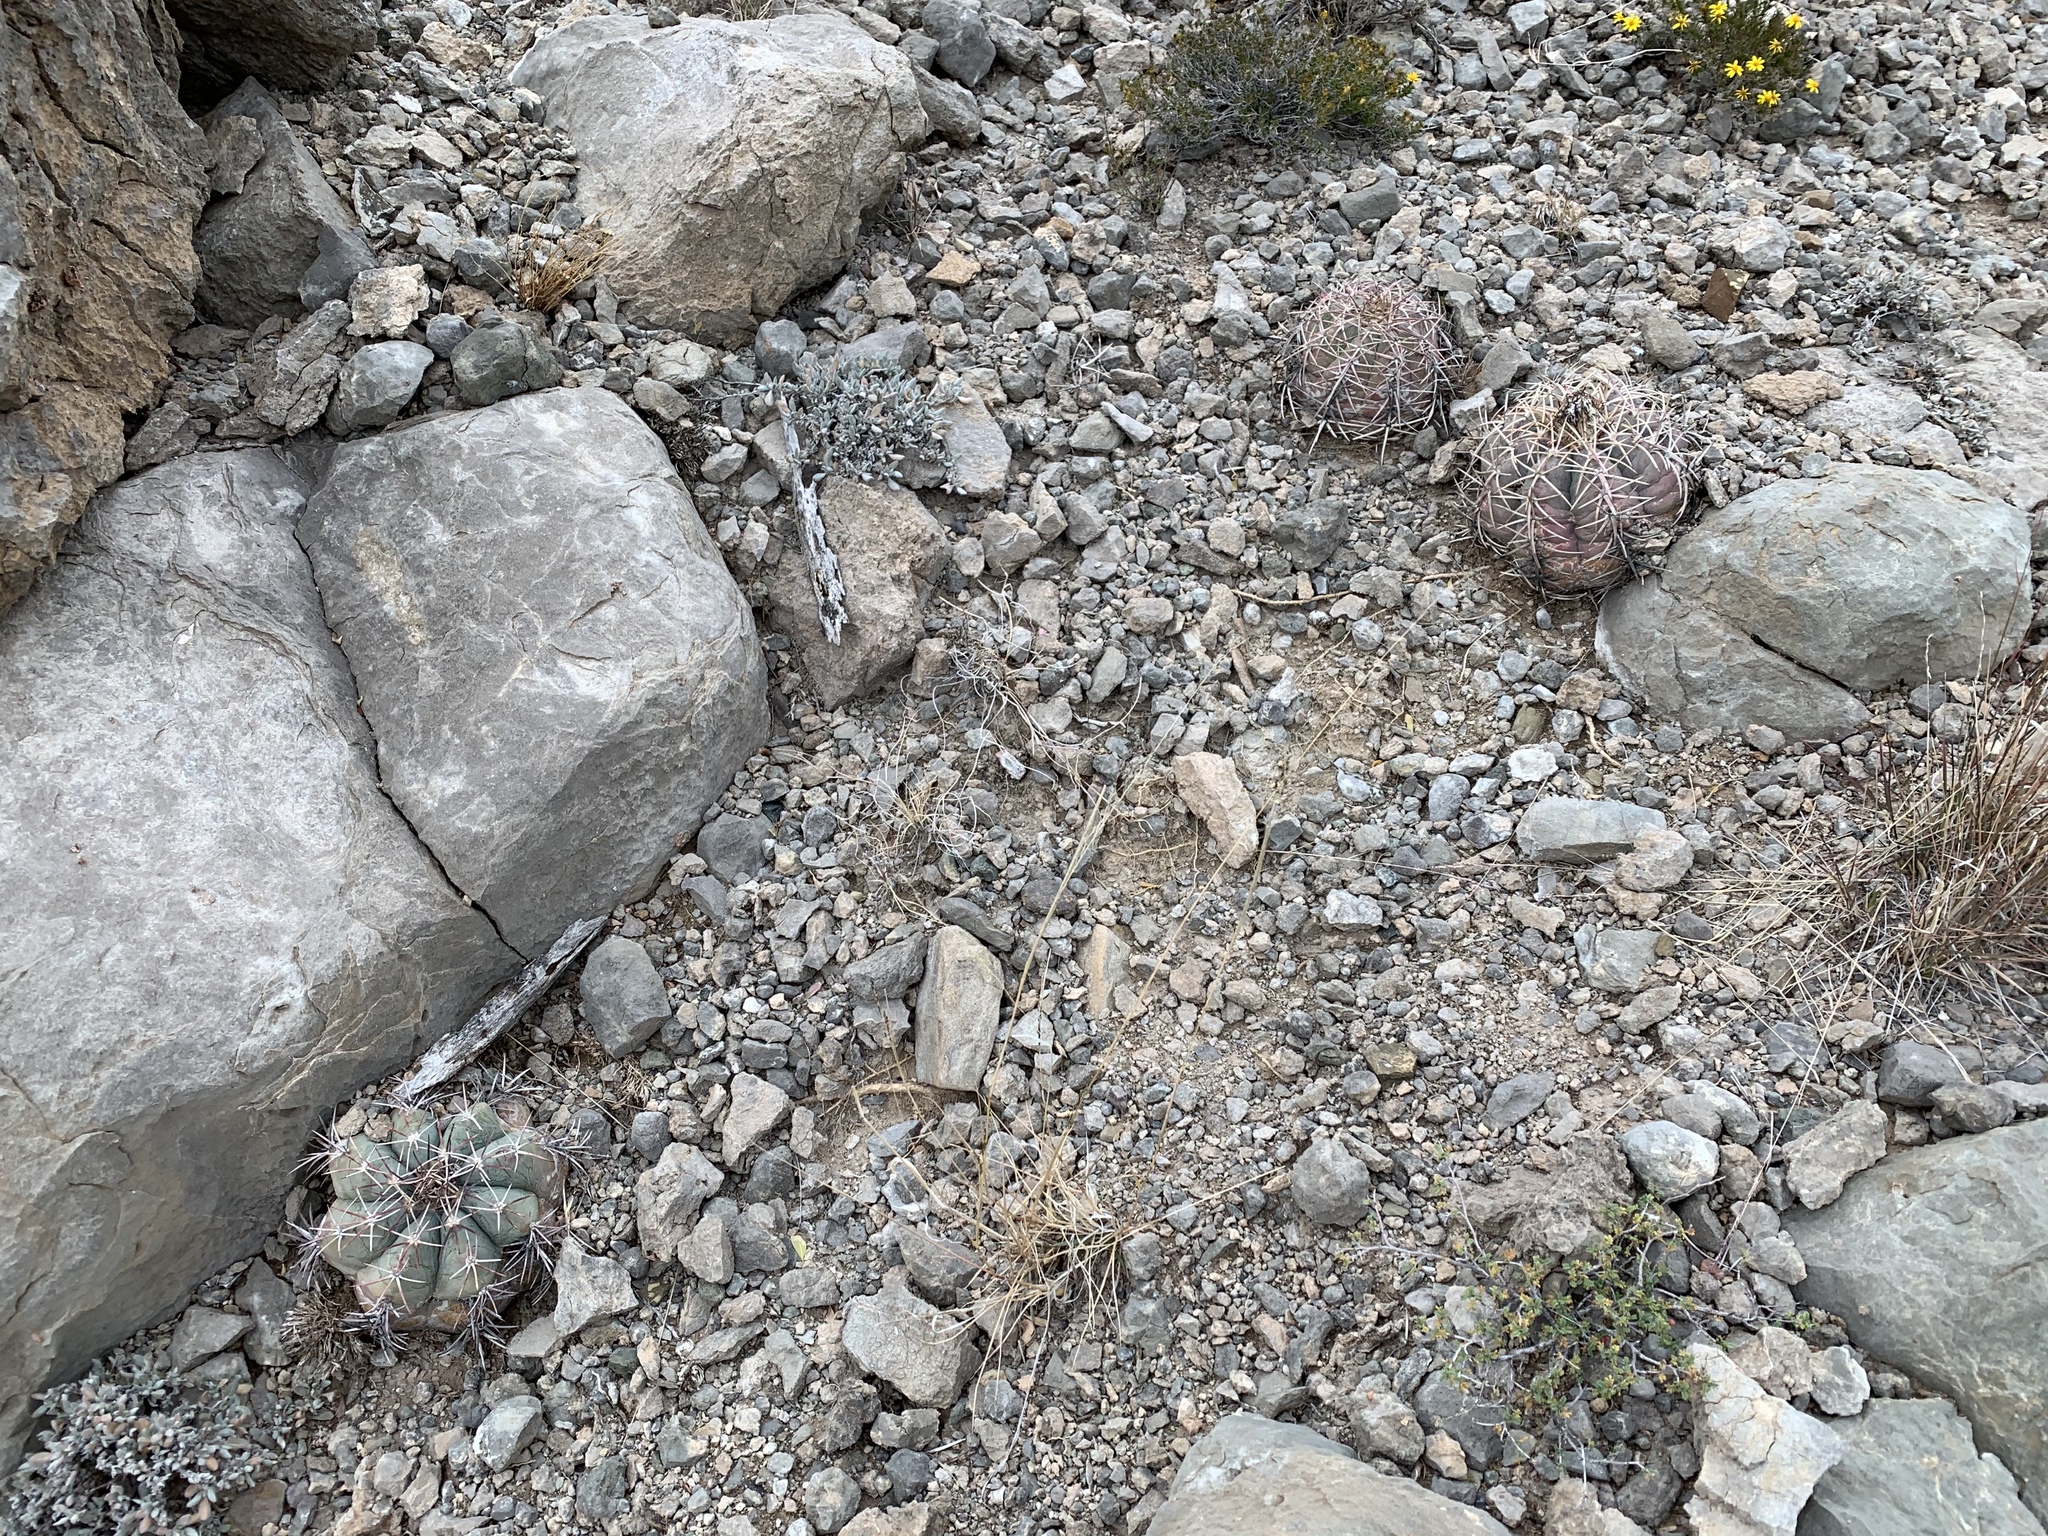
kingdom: Plantae
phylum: Tracheophyta
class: Magnoliopsida
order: Caryophyllales
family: Cactaceae
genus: Echinocactus
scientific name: Echinocactus horizonthalonius
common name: Devilshead
